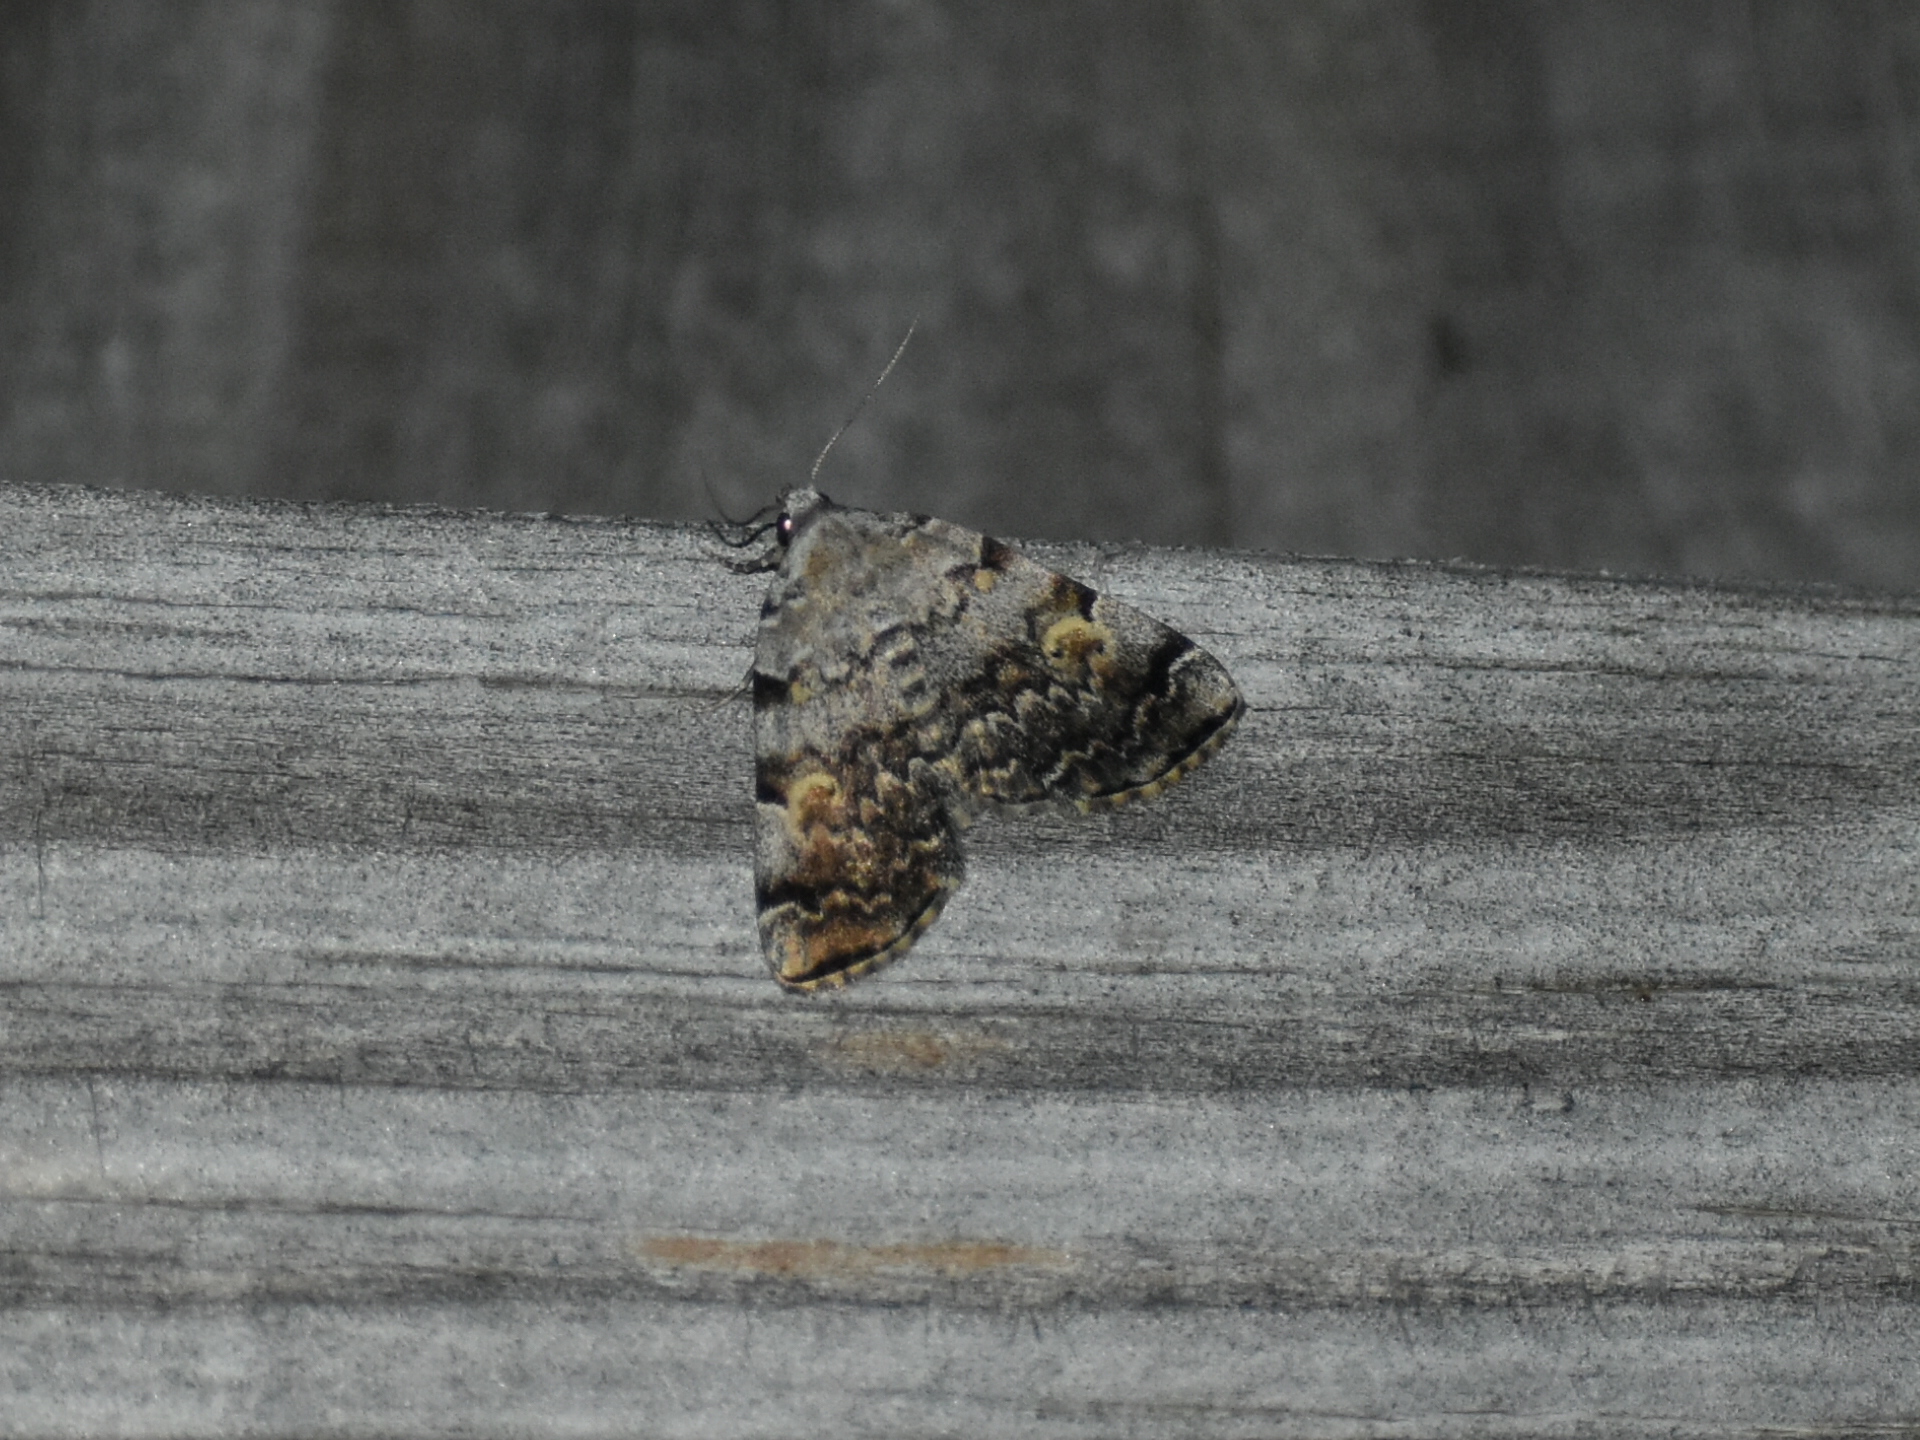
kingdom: Animalia
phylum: Arthropoda
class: Insecta
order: Lepidoptera
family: Erebidae
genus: Idia
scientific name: Idia americalis
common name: American idia moth
